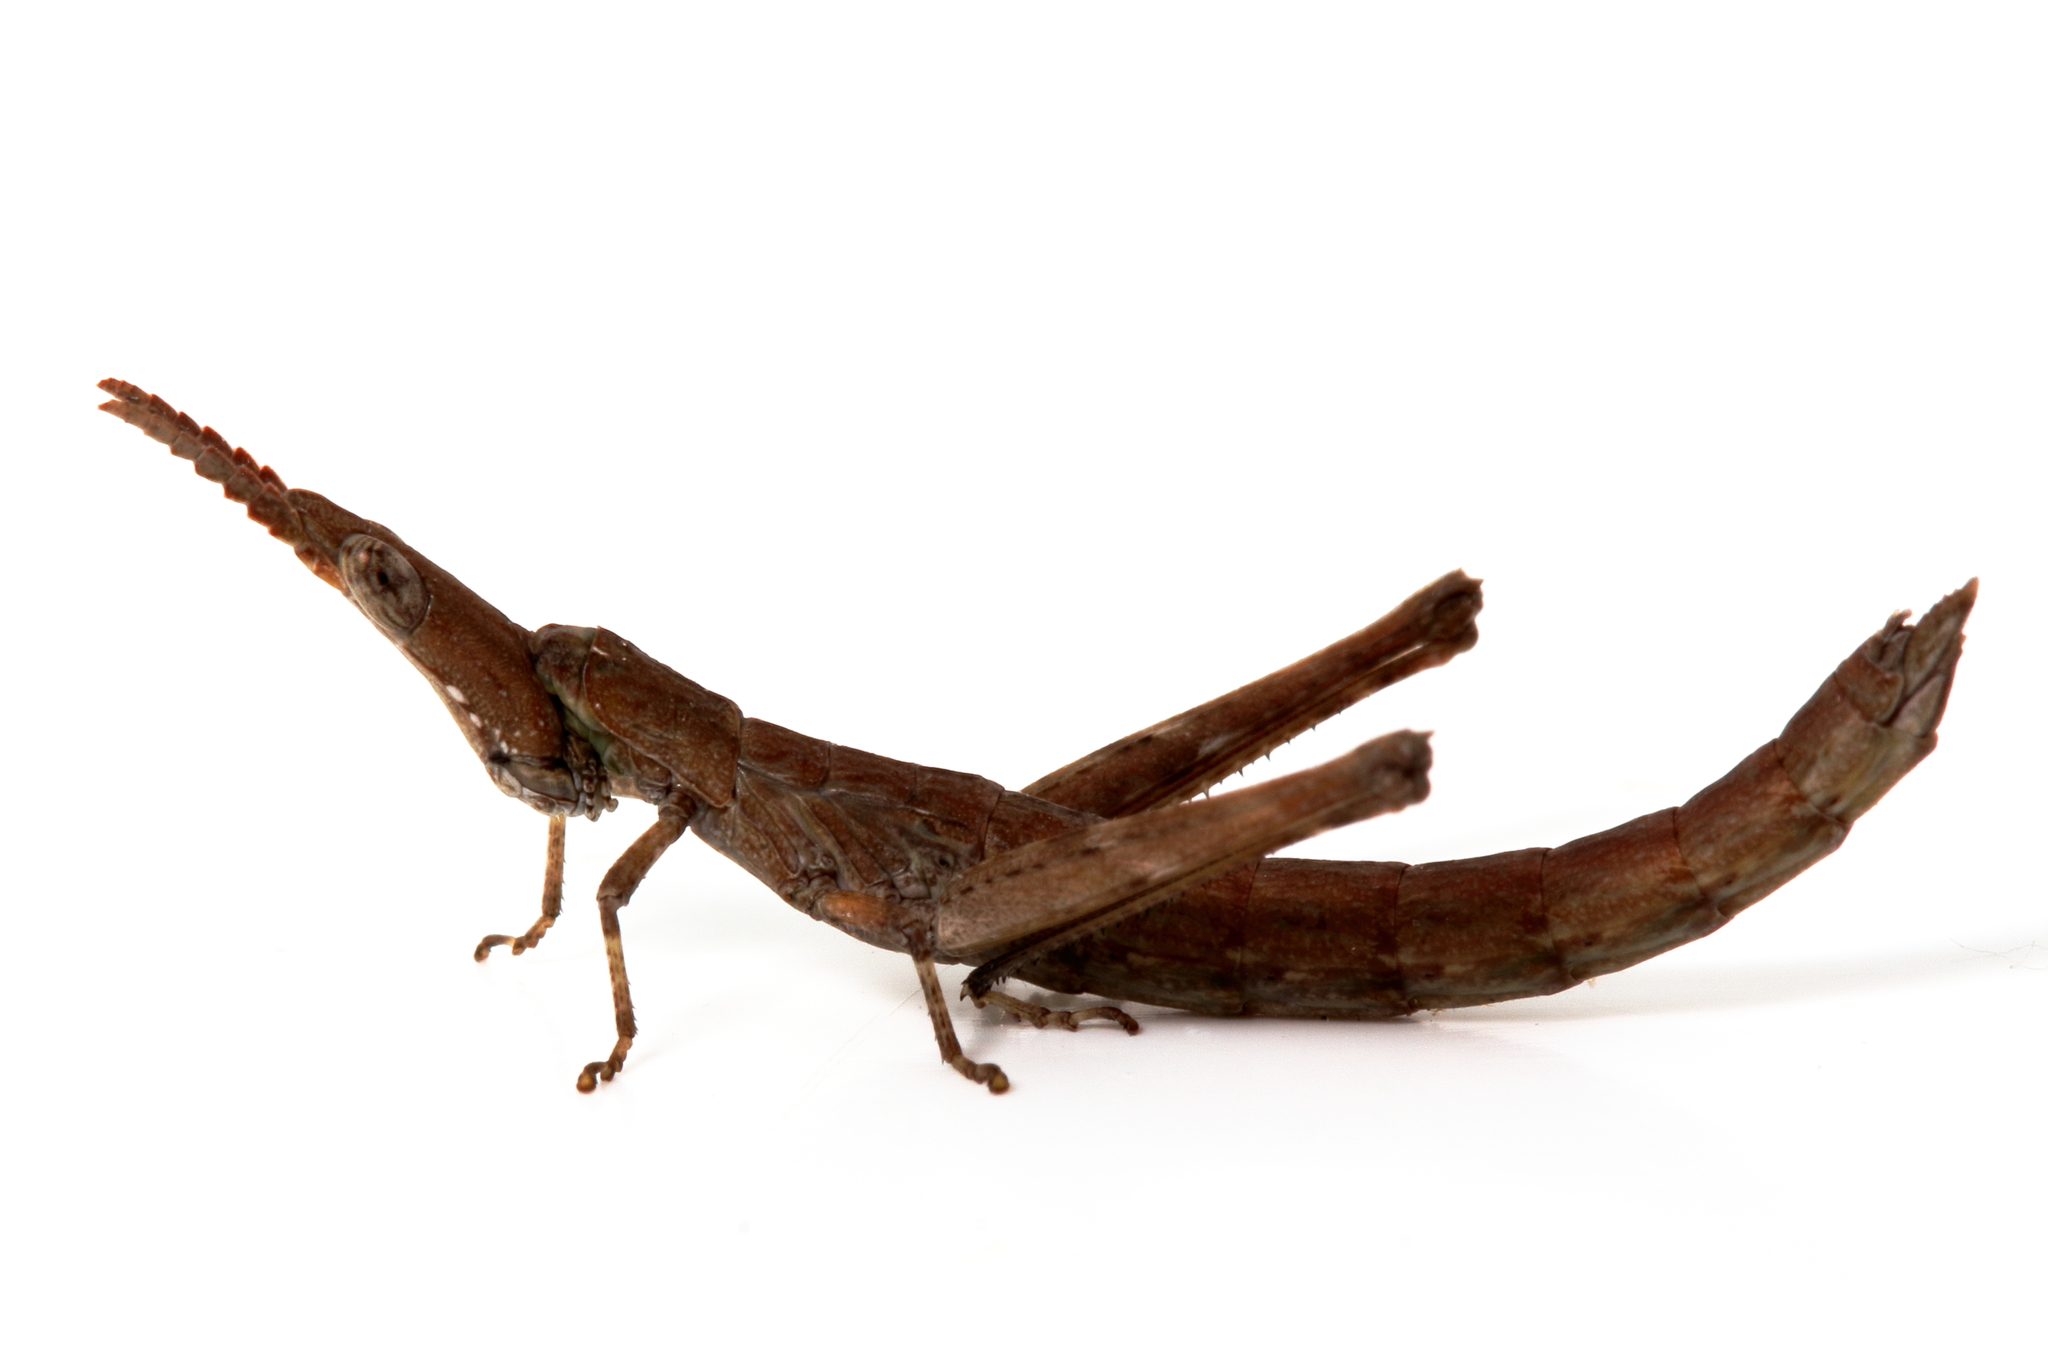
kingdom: Animalia
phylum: Arthropoda
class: Insecta
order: Orthoptera
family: Morabidae
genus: Vandiemenella
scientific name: Vandiemenella viatica
